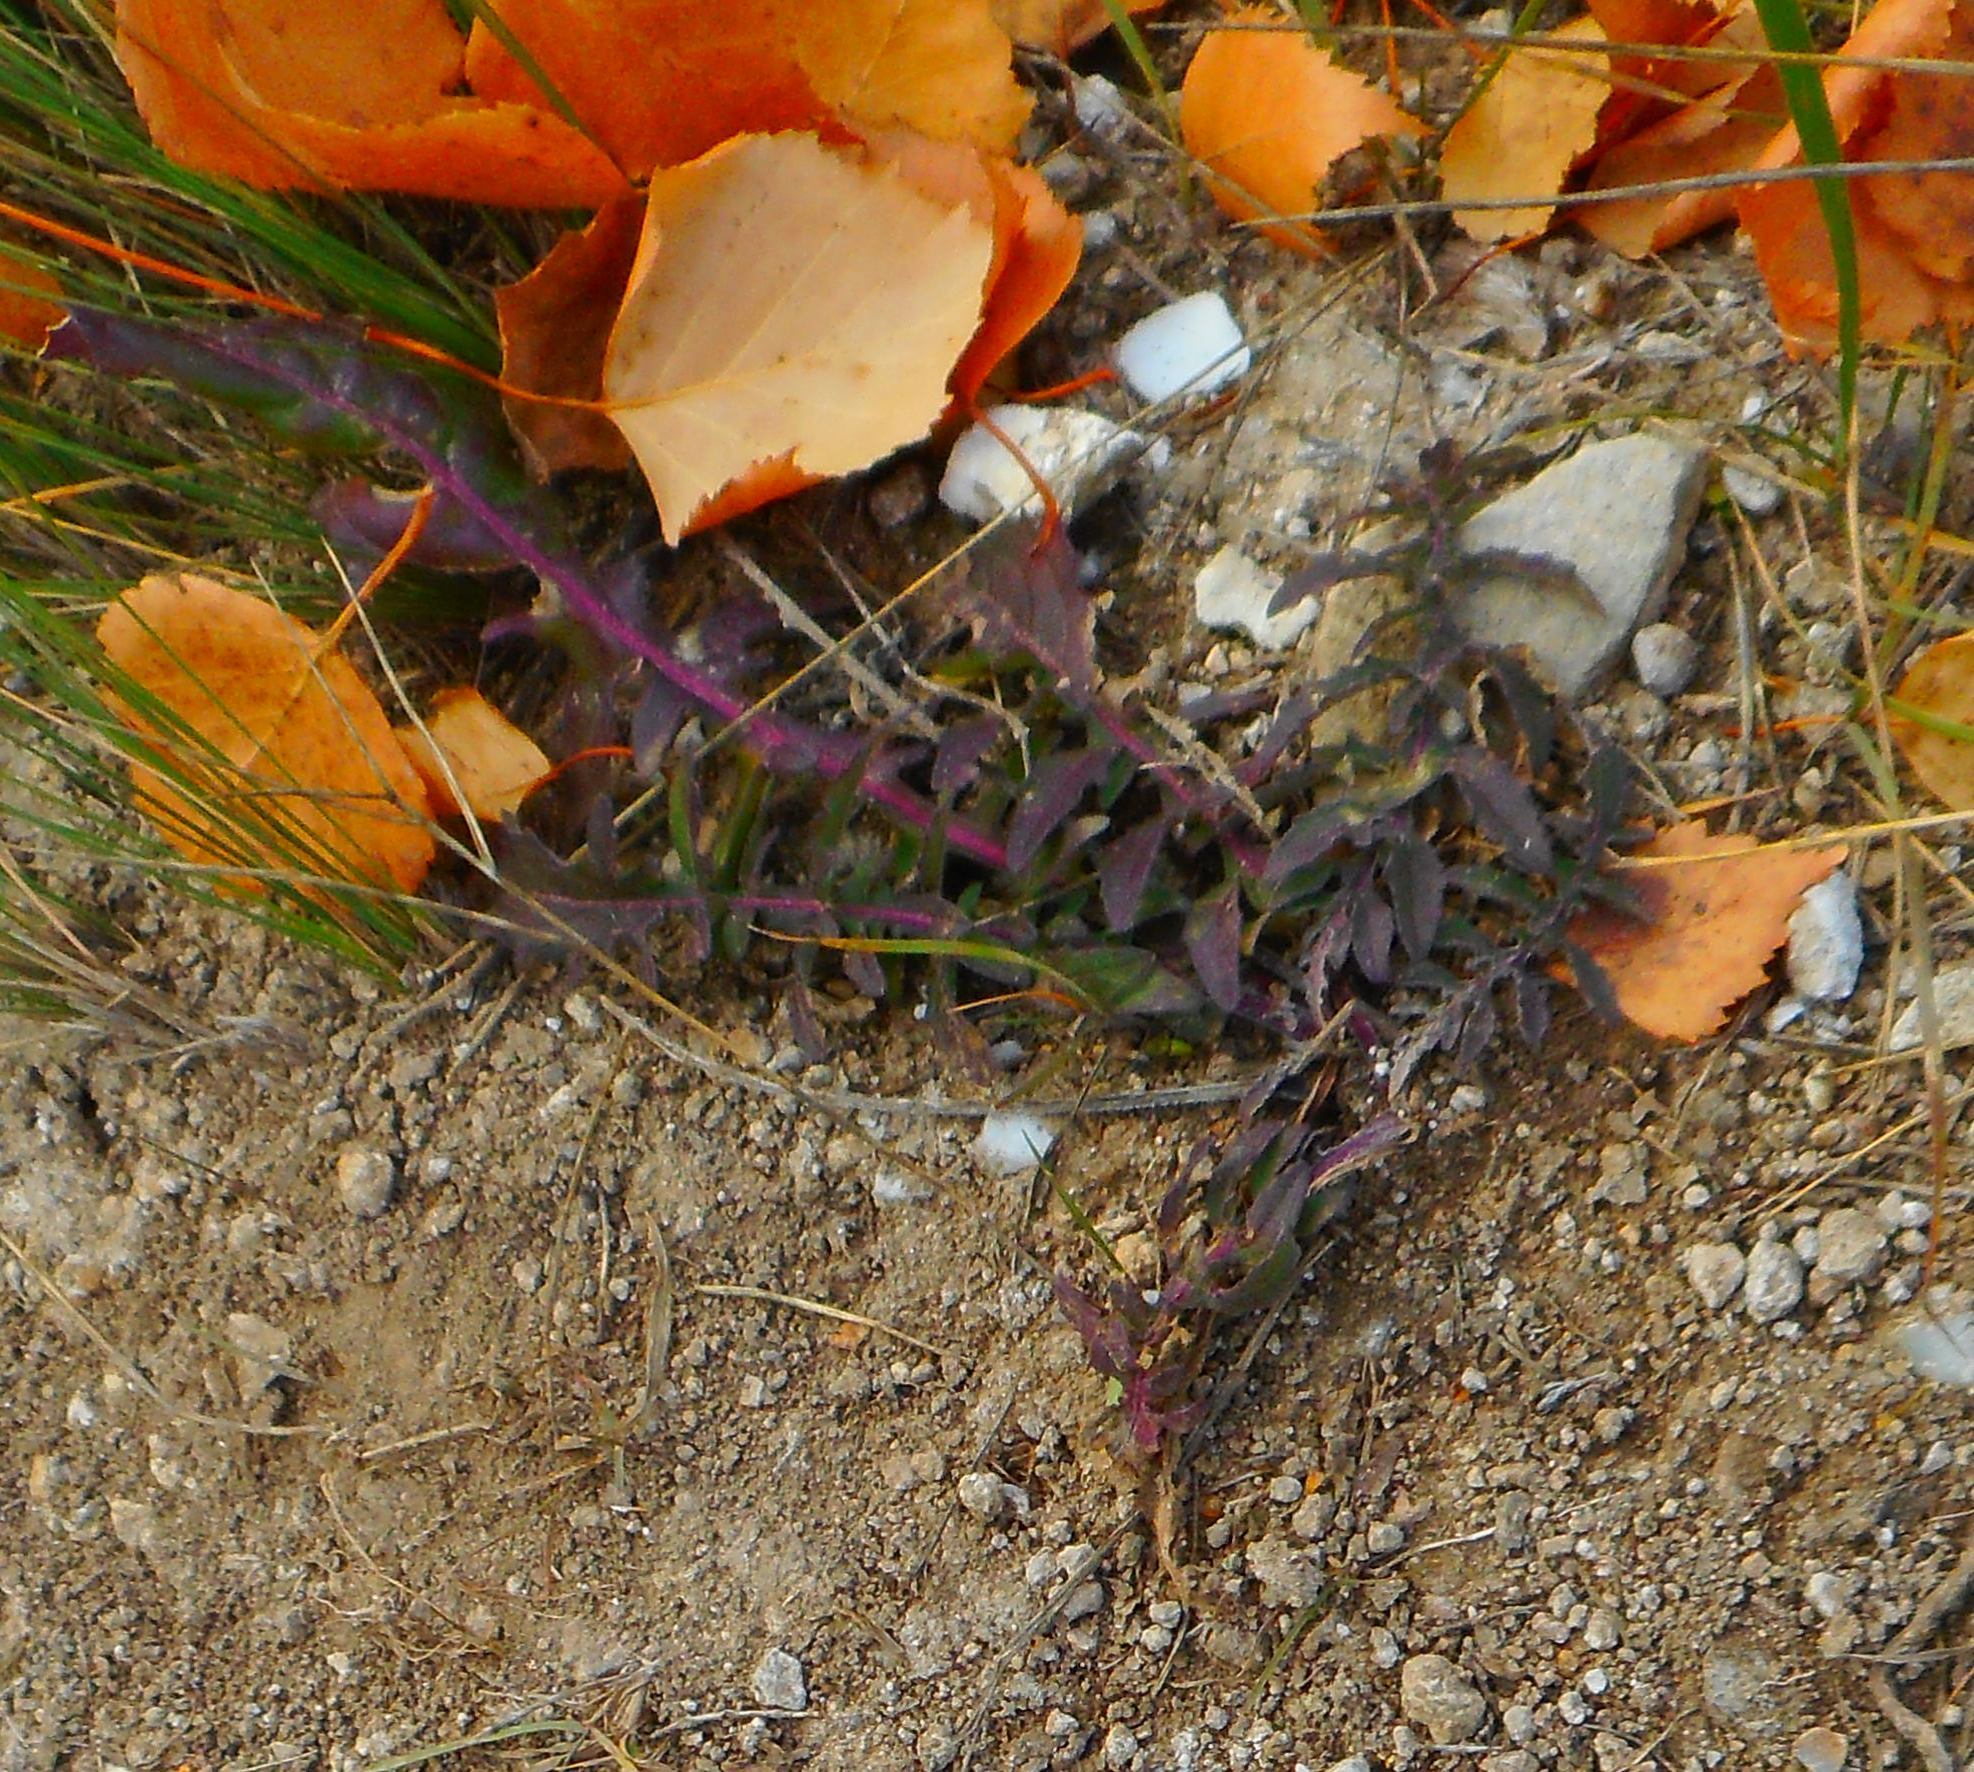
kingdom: Plantae
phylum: Tracheophyta
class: Magnoliopsida
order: Asterales
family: Asteraceae
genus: Centaurea
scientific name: Centaurea scabiosa
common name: Greater knapweed
